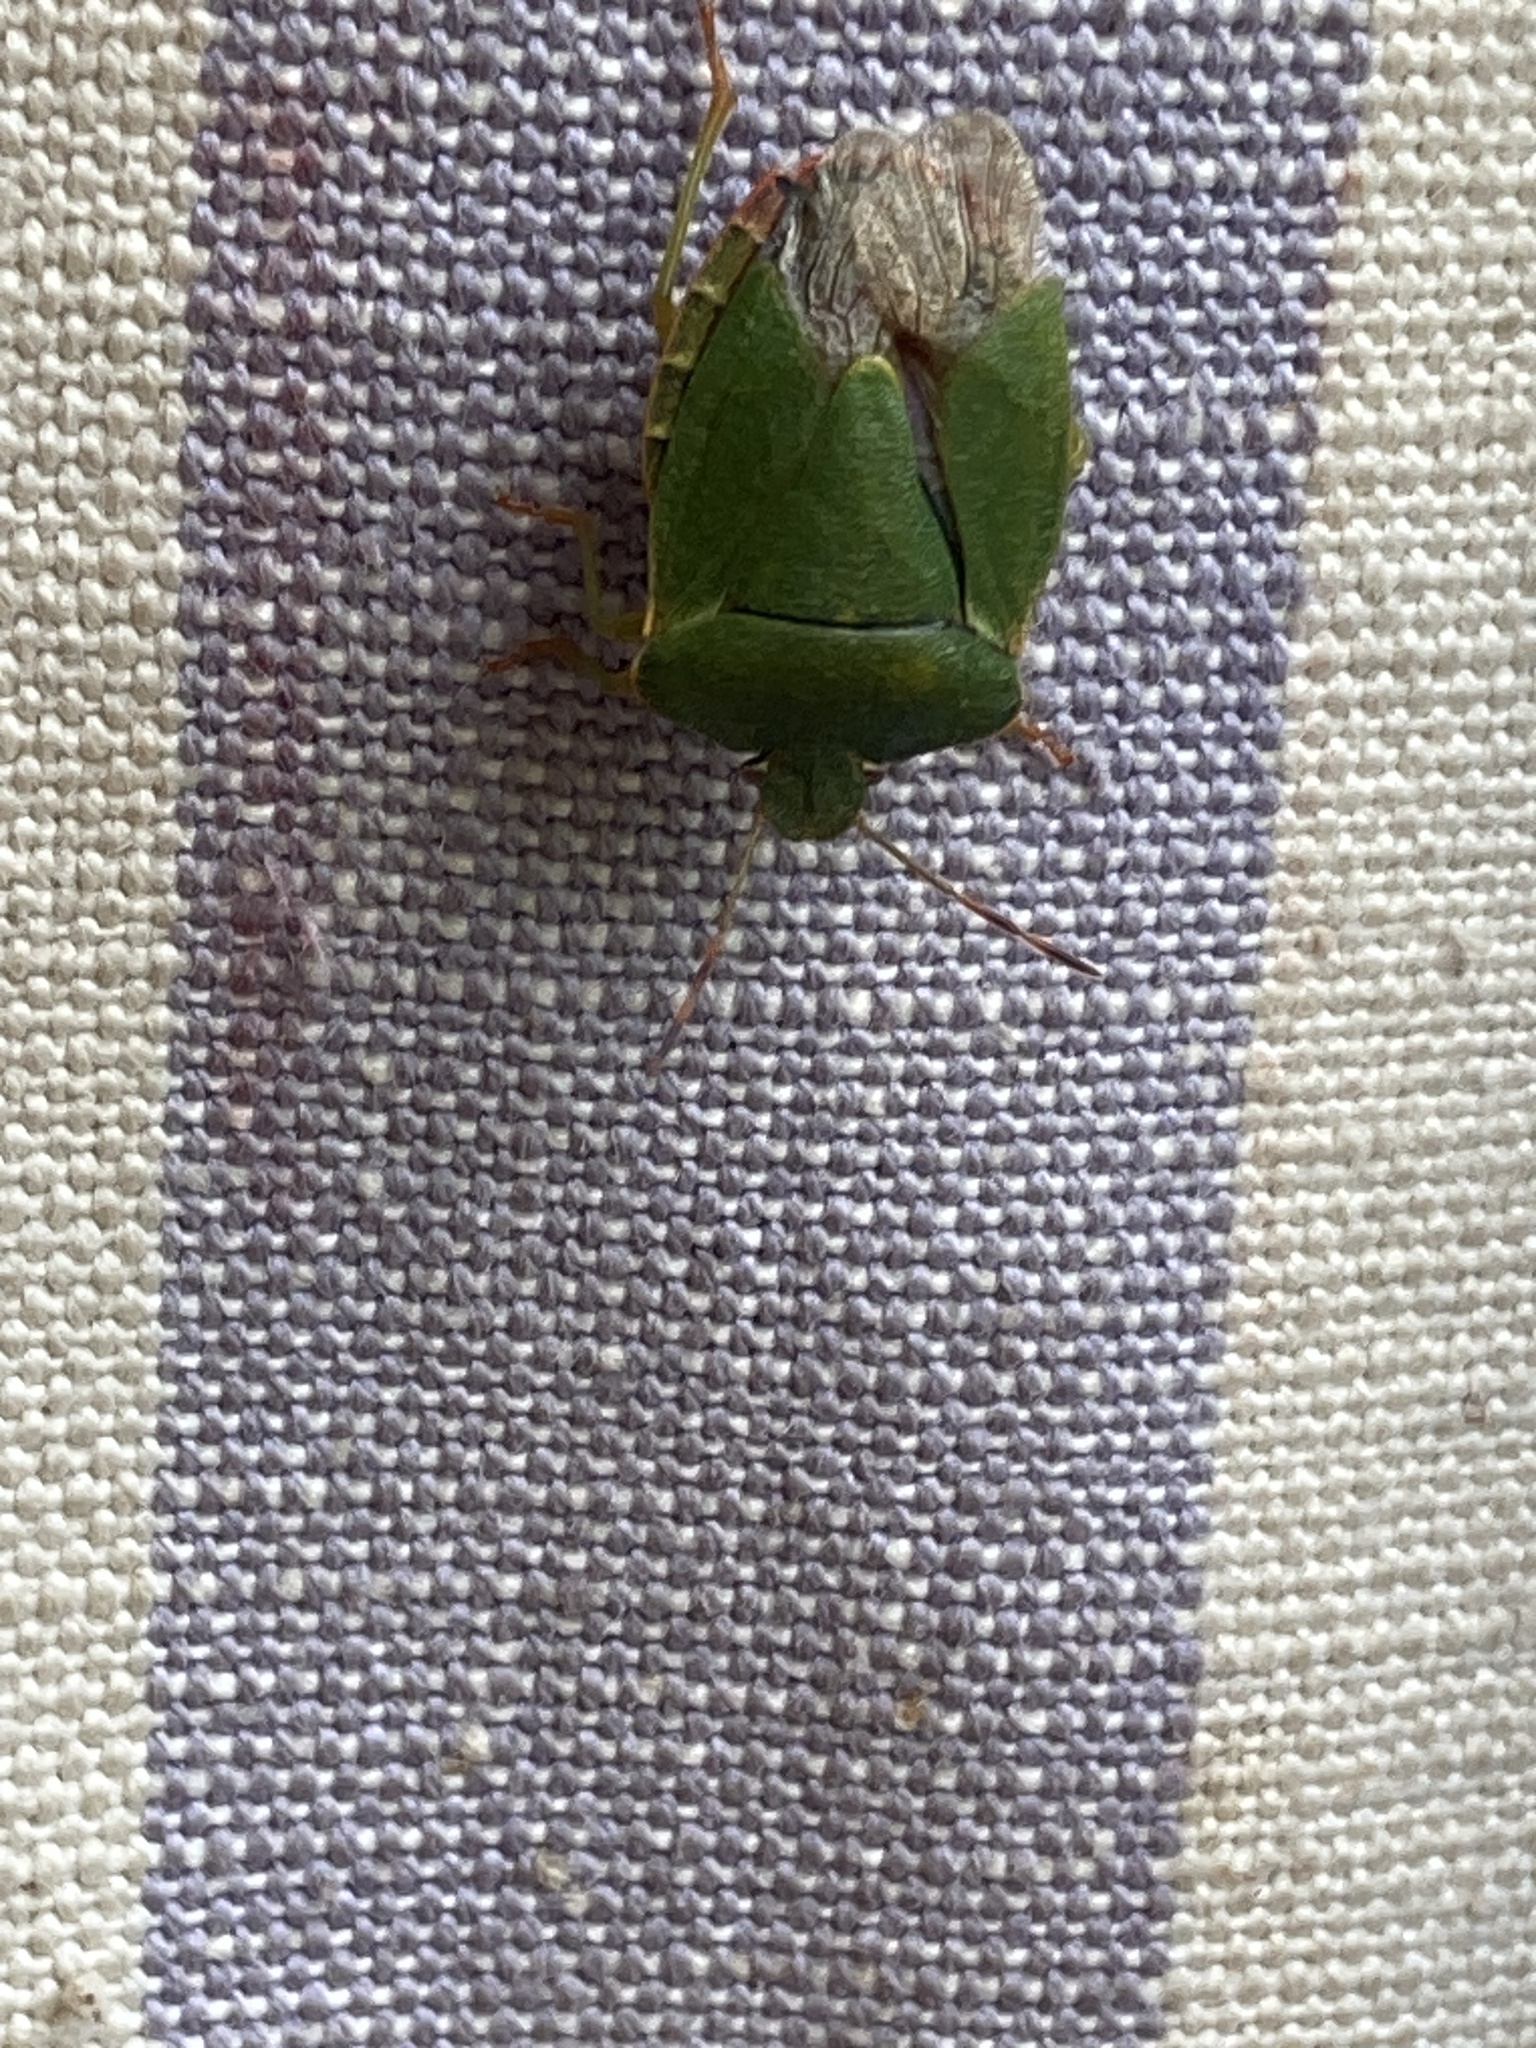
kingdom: Animalia
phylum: Arthropoda
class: Insecta
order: Hemiptera
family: Pentatomidae
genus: Palomena
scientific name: Palomena prasina
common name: Green shieldbug
